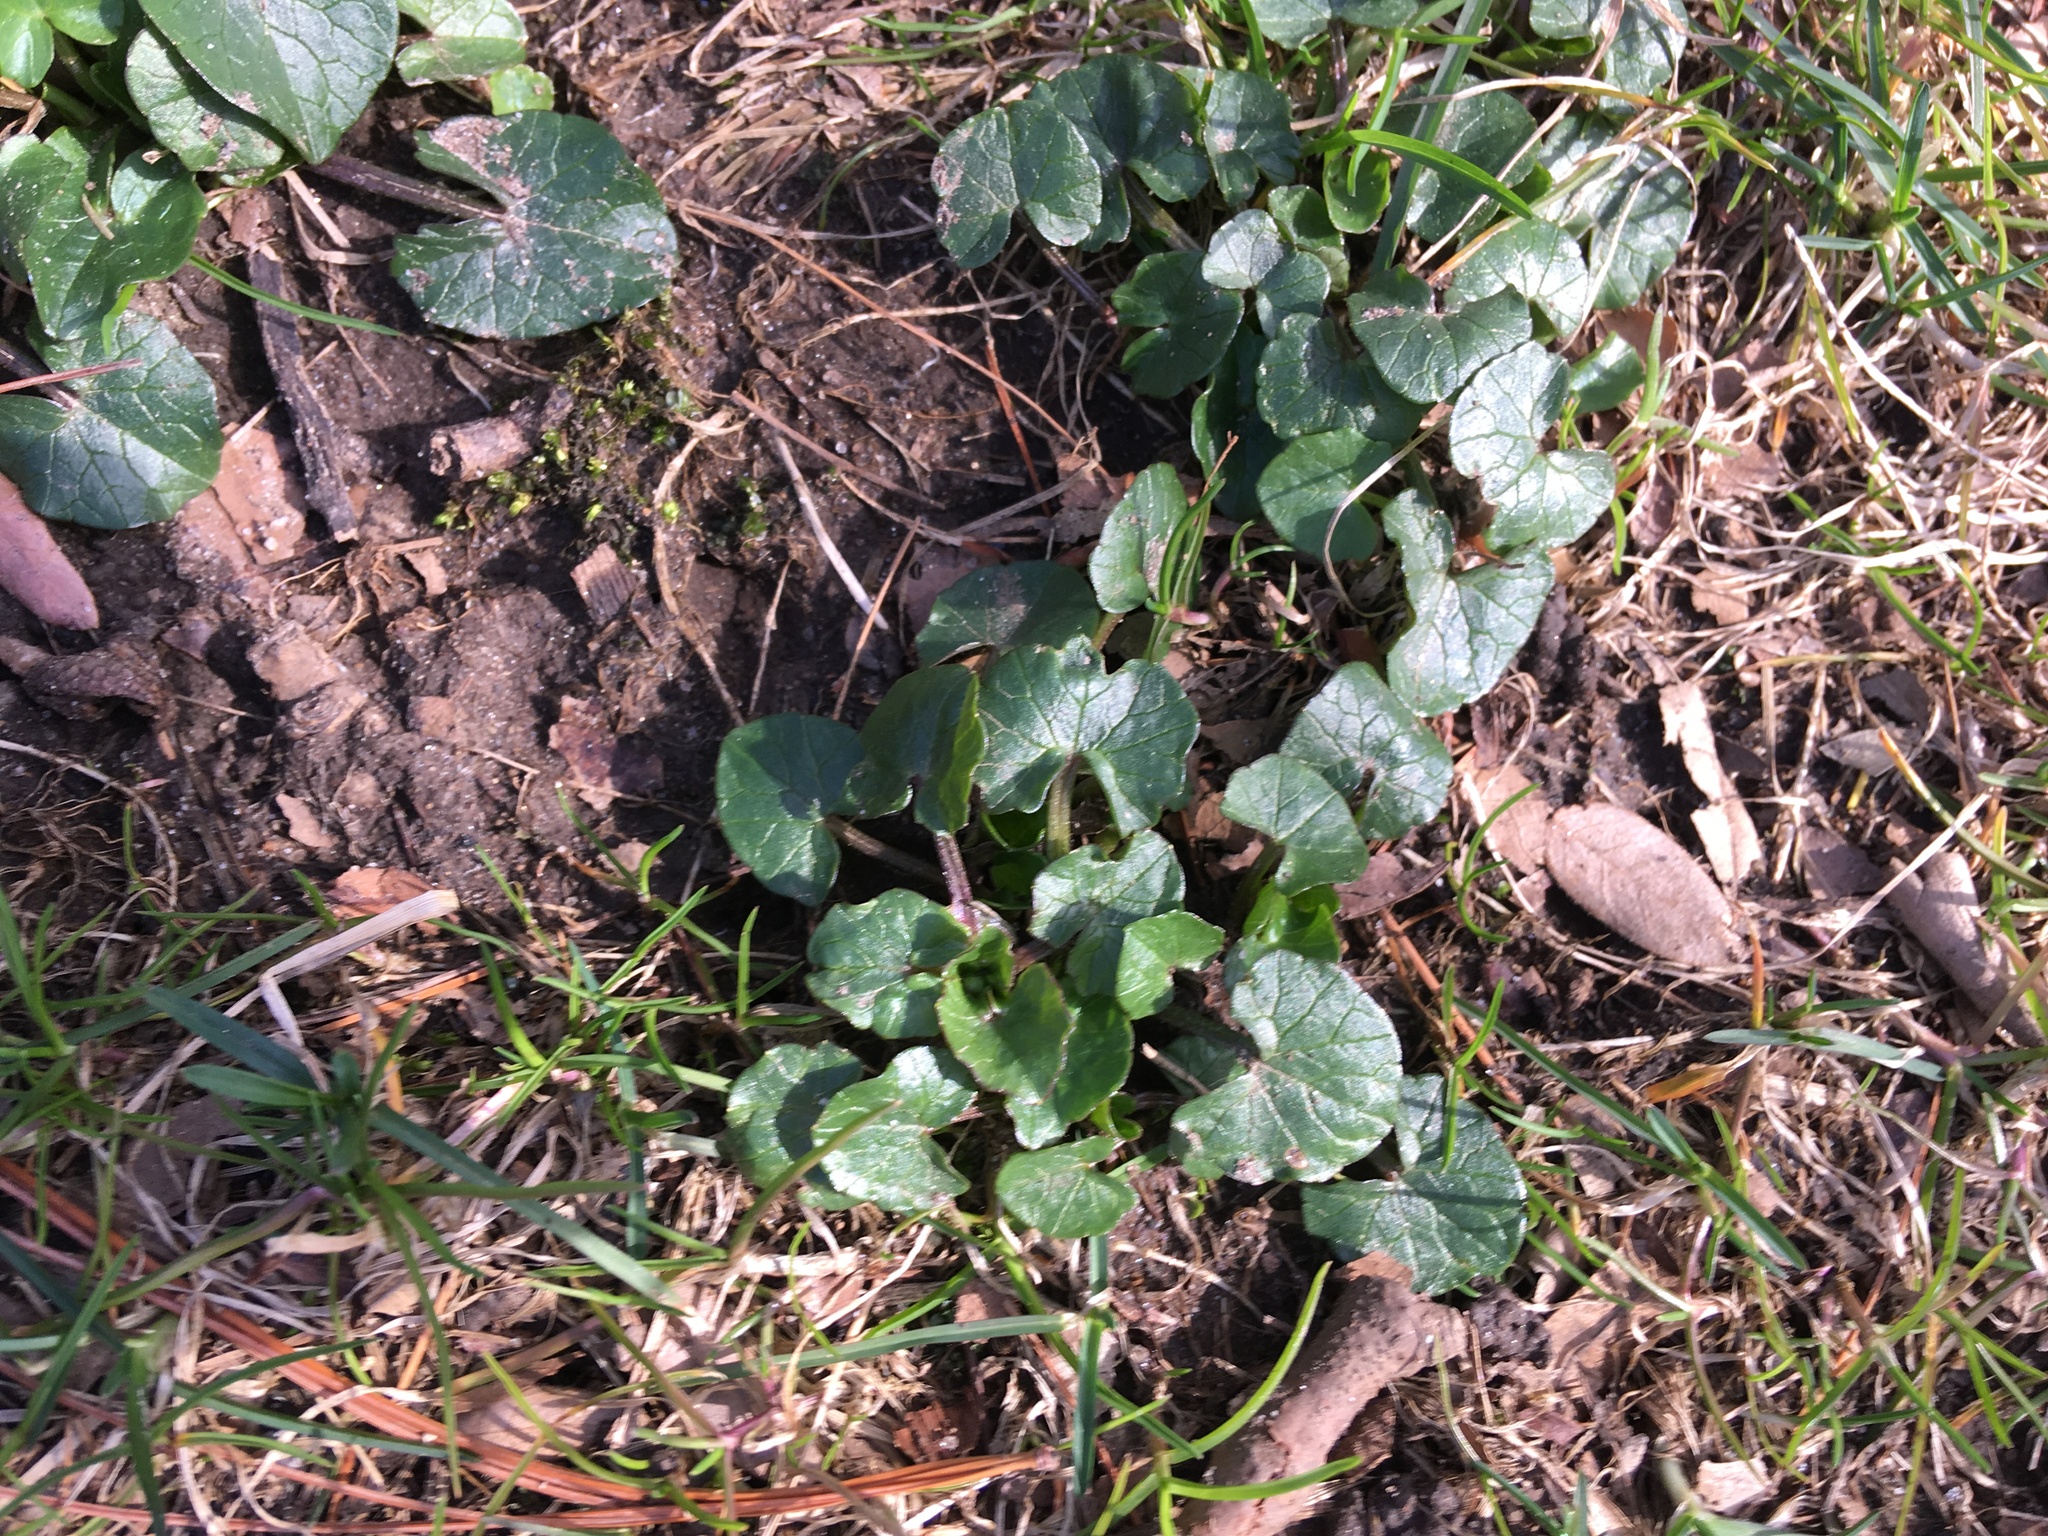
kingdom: Plantae
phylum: Tracheophyta
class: Magnoliopsida
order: Ranunculales
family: Ranunculaceae
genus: Ficaria
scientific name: Ficaria verna
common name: Lesser celandine
